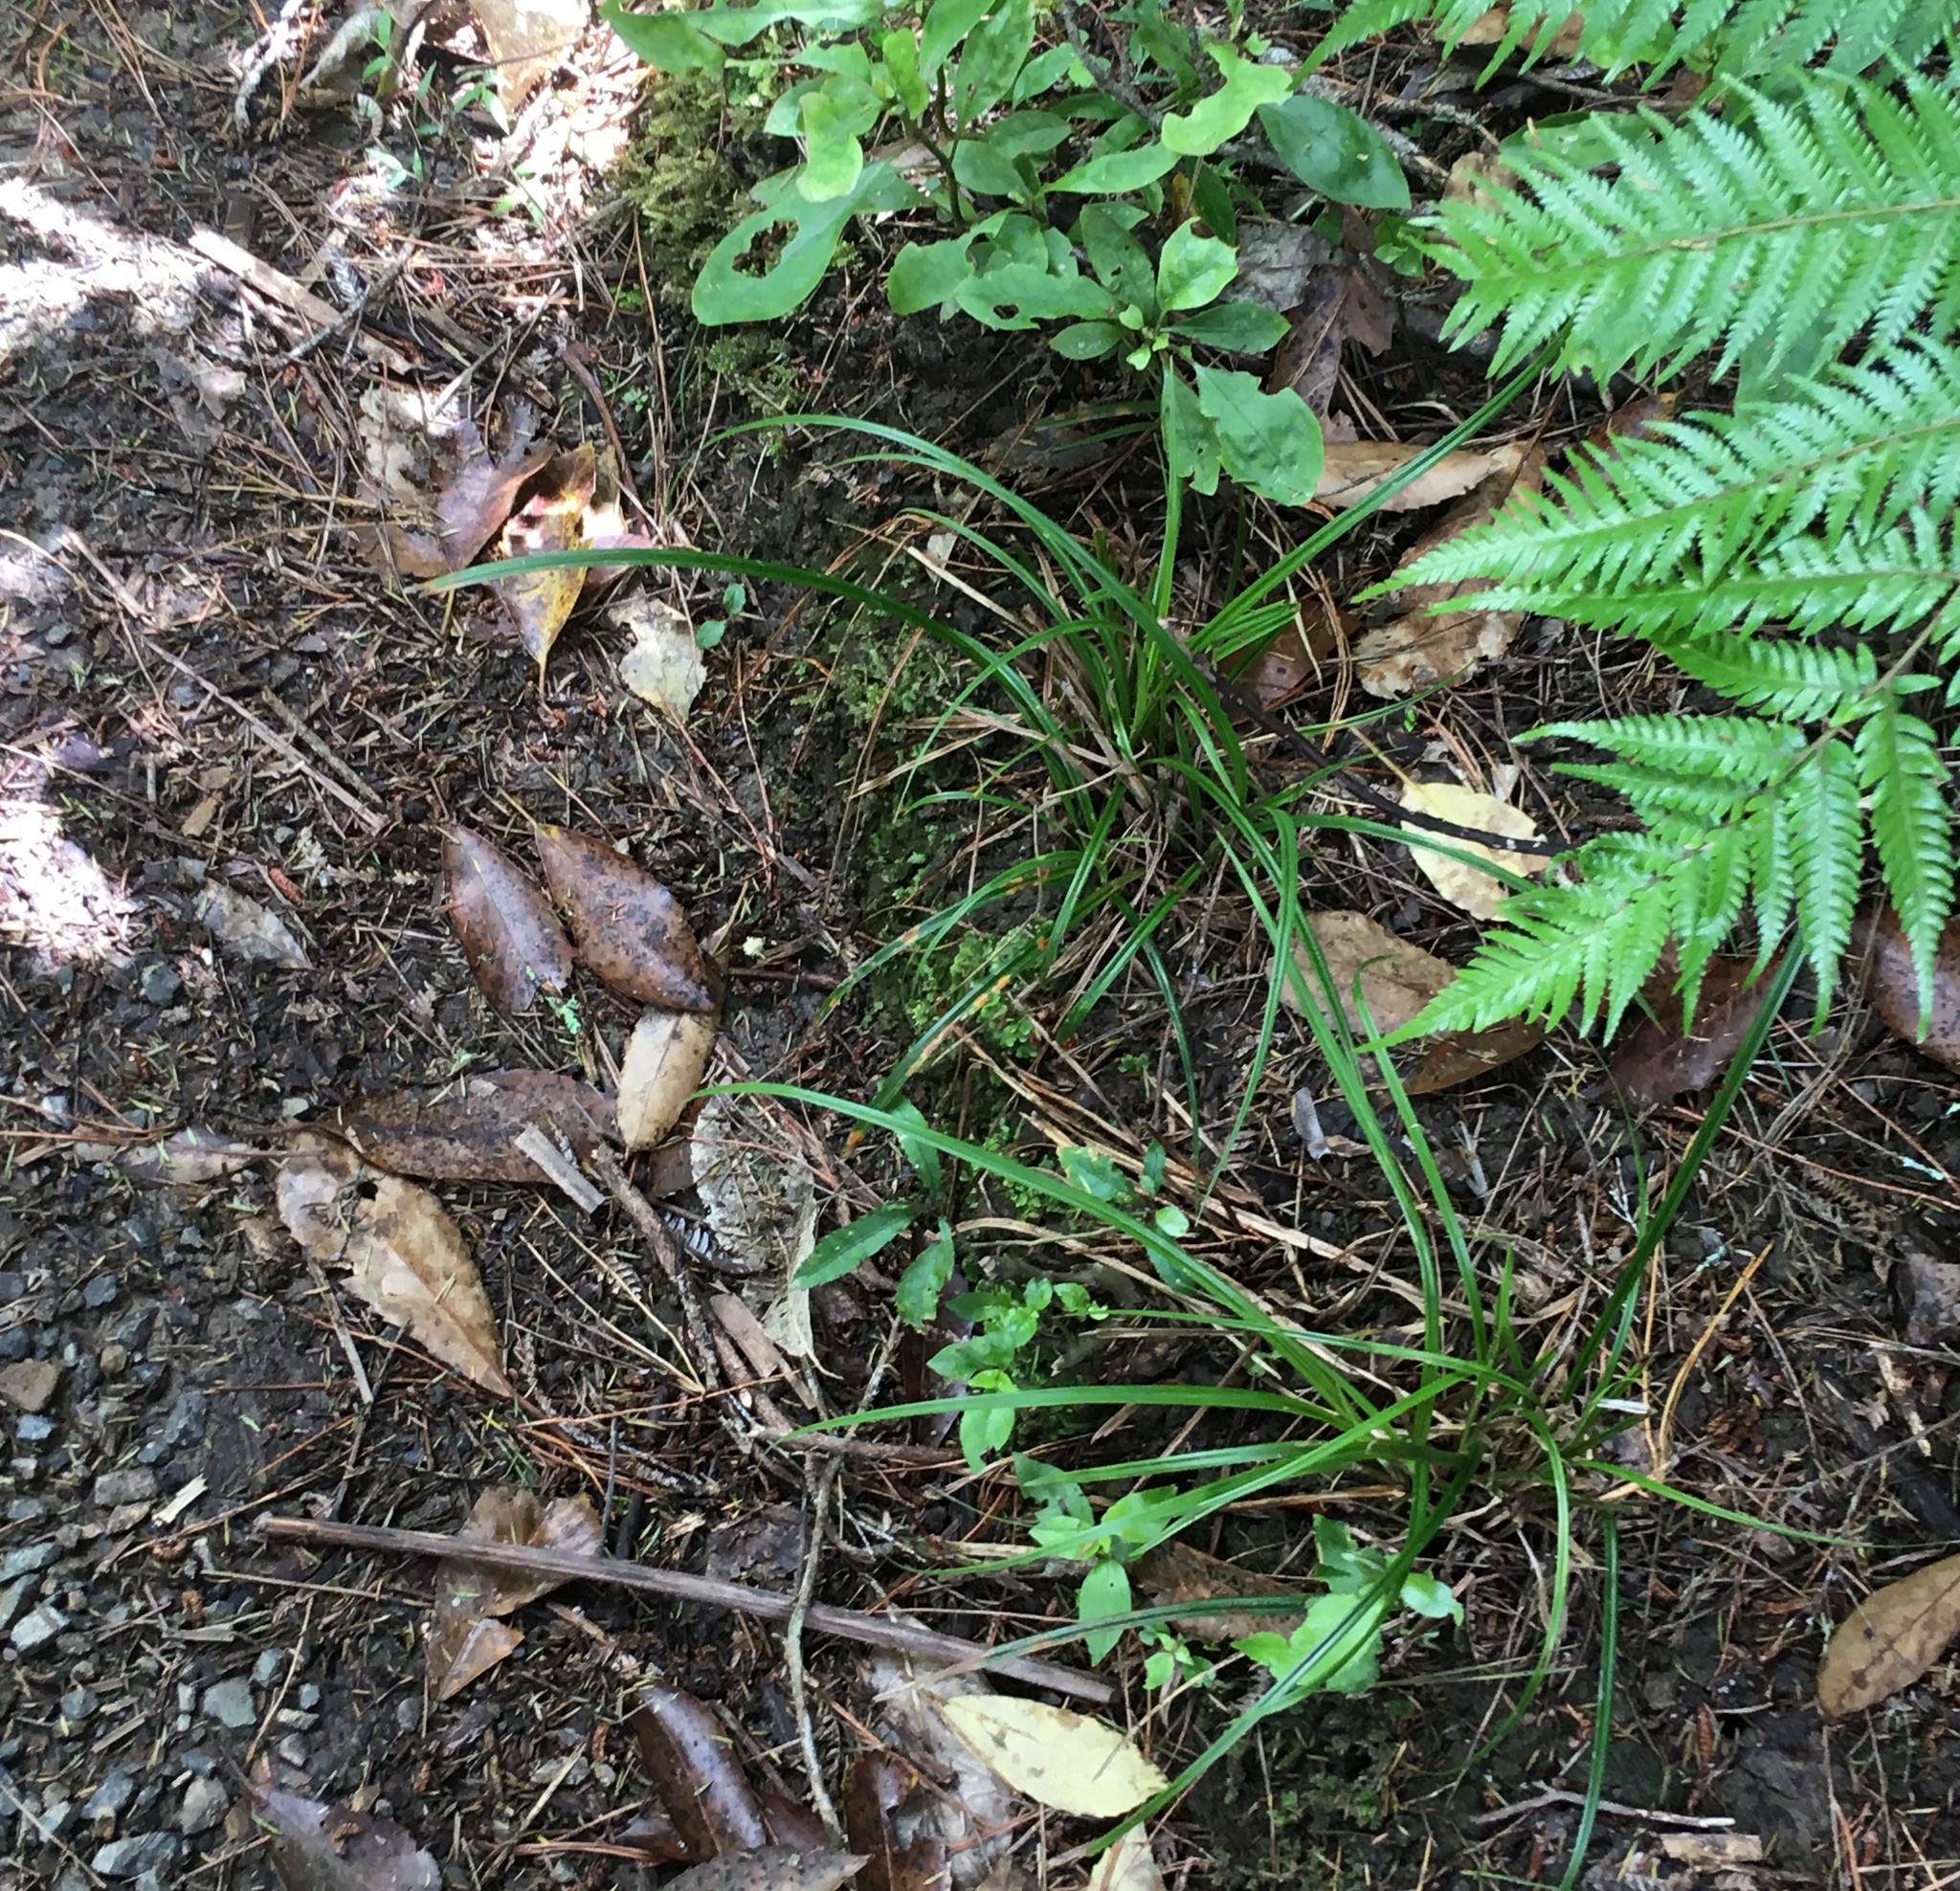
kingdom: Plantae
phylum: Tracheophyta
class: Magnoliopsida
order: Lamiales
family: Oleaceae
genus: Ligustrum
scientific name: Ligustrum lucidum
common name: Glossy privet
